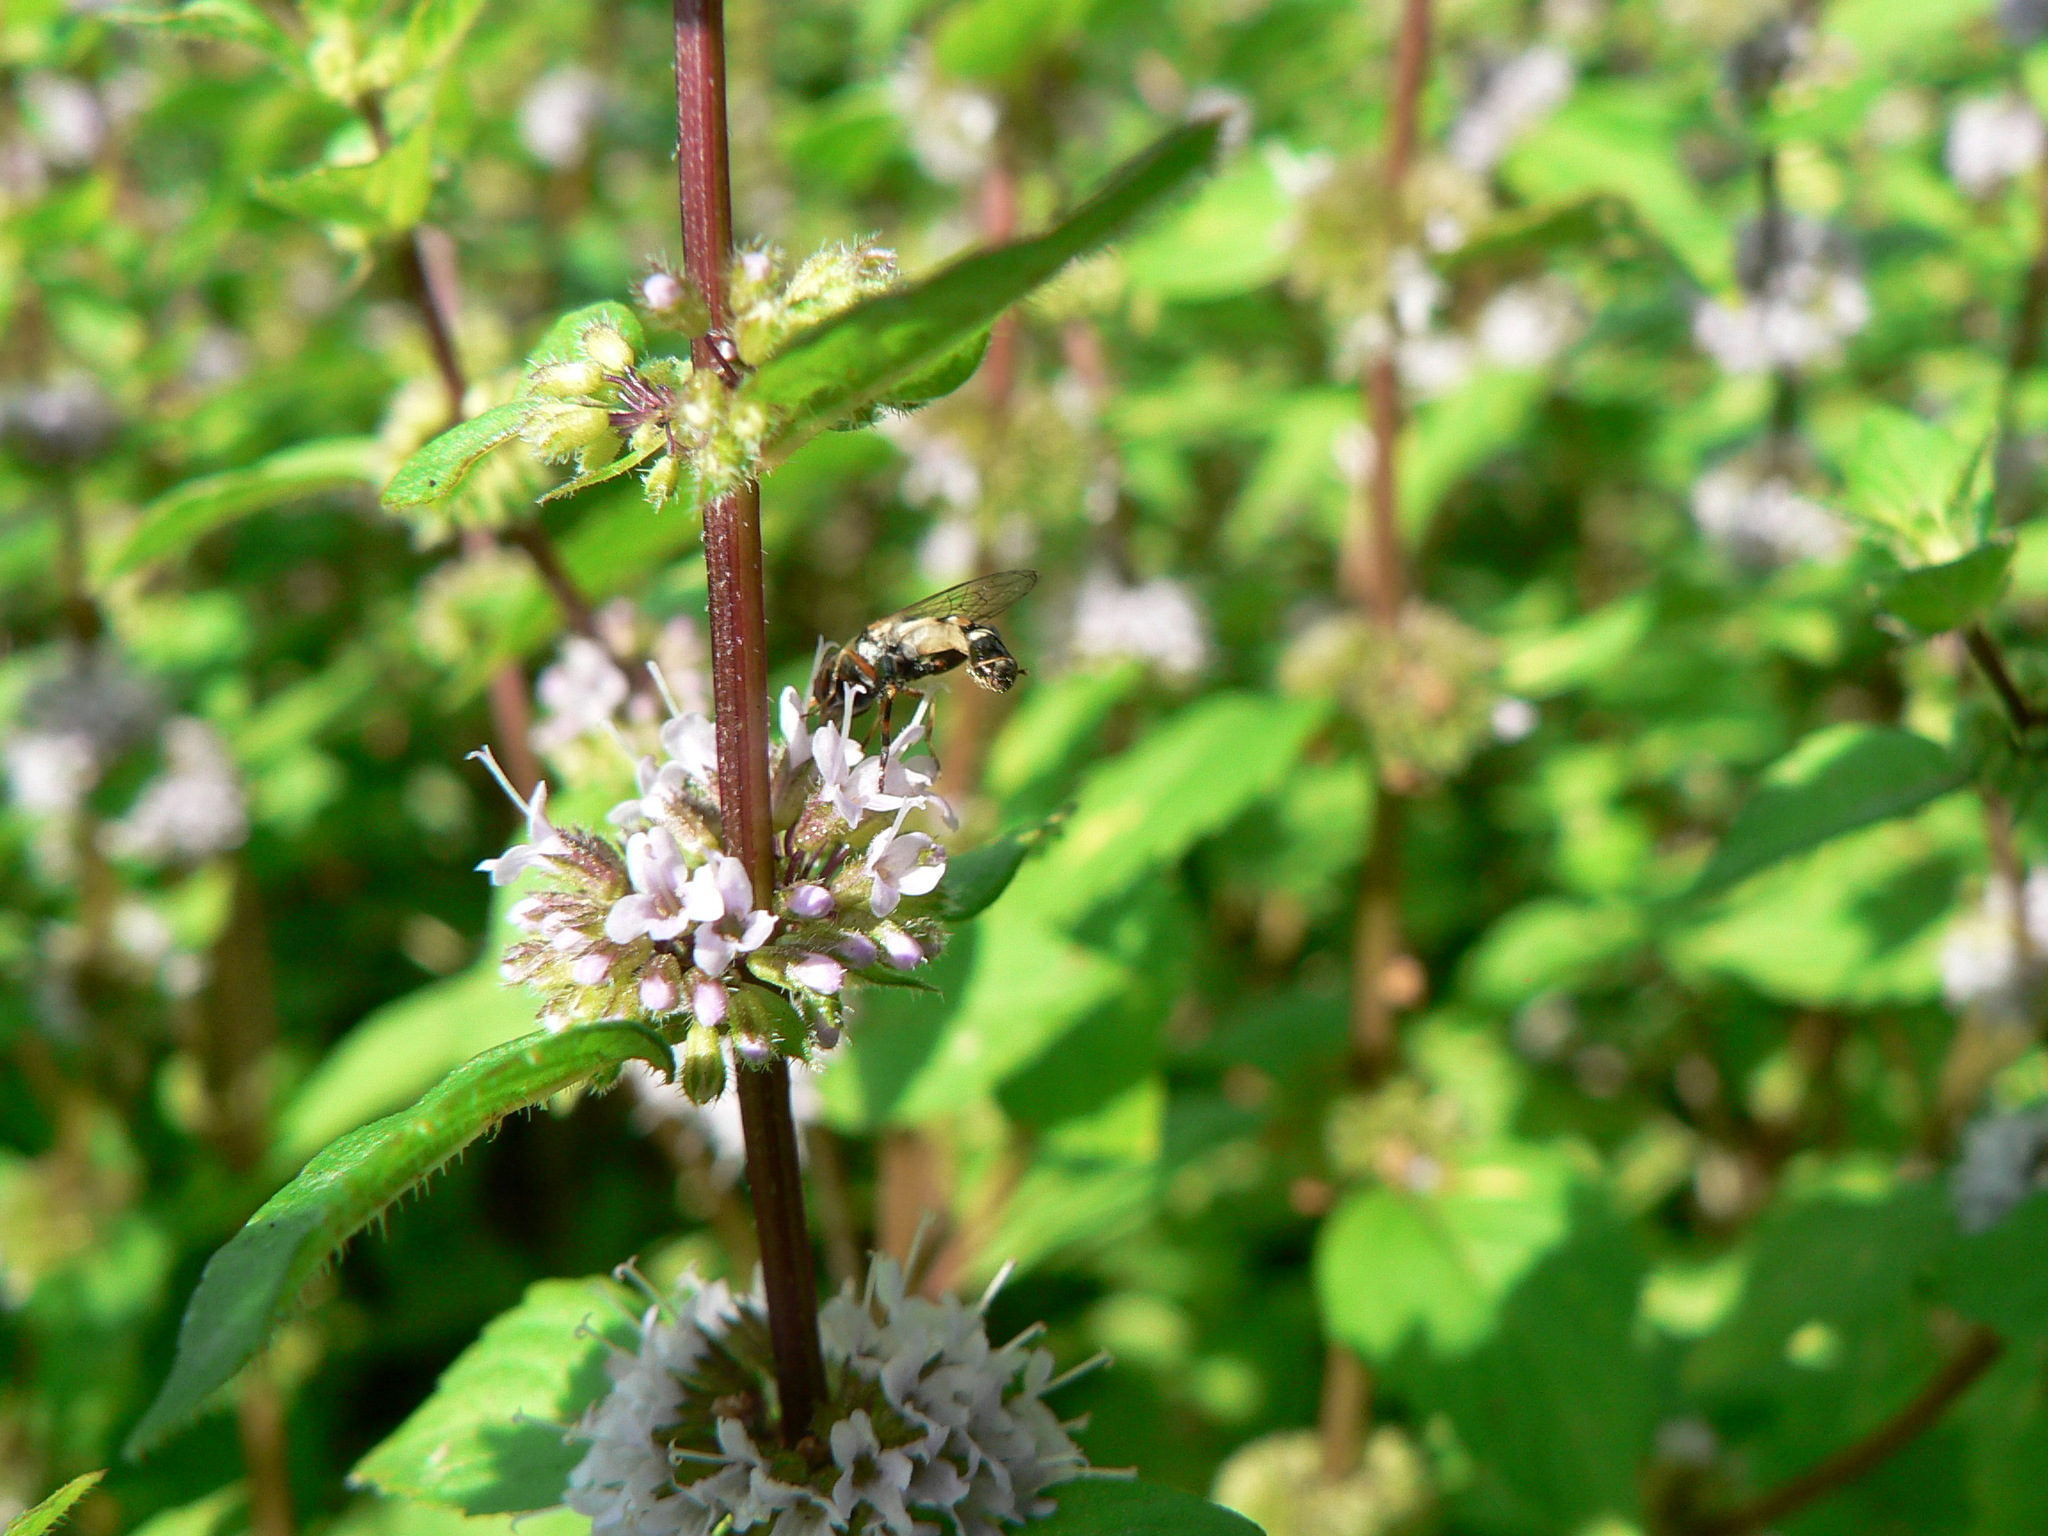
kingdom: Animalia
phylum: Arthropoda
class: Insecta
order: Diptera
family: Syrphidae
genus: Syritta
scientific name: Syritta pipiens
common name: Hover fly
